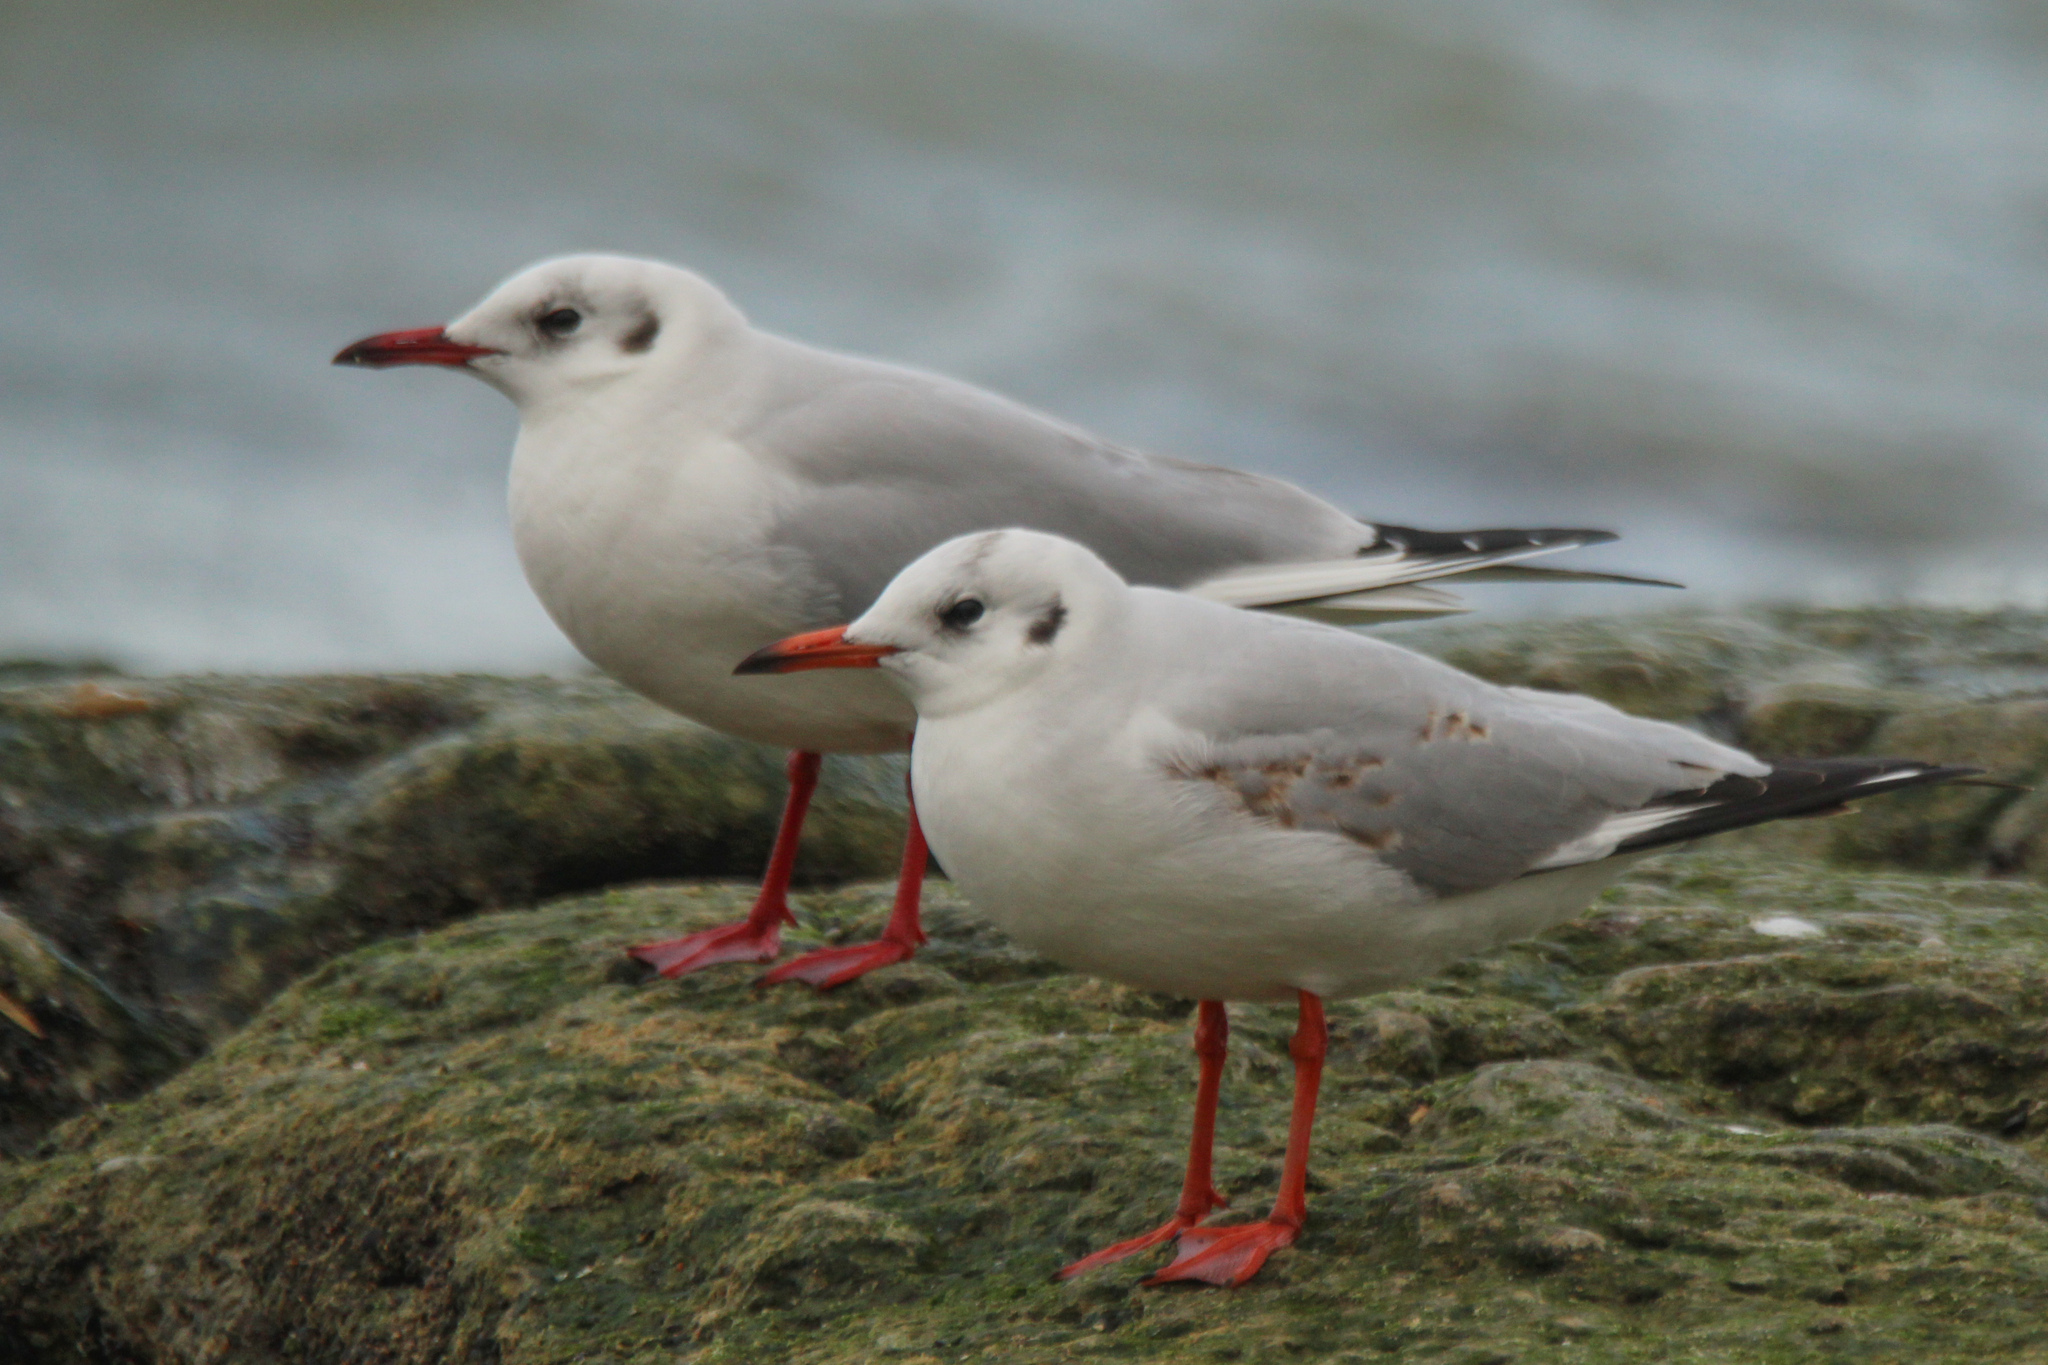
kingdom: Animalia
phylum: Chordata
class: Aves
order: Charadriiformes
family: Laridae
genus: Chroicocephalus
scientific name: Chroicocephalus ridibundus
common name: Black-headed gull
